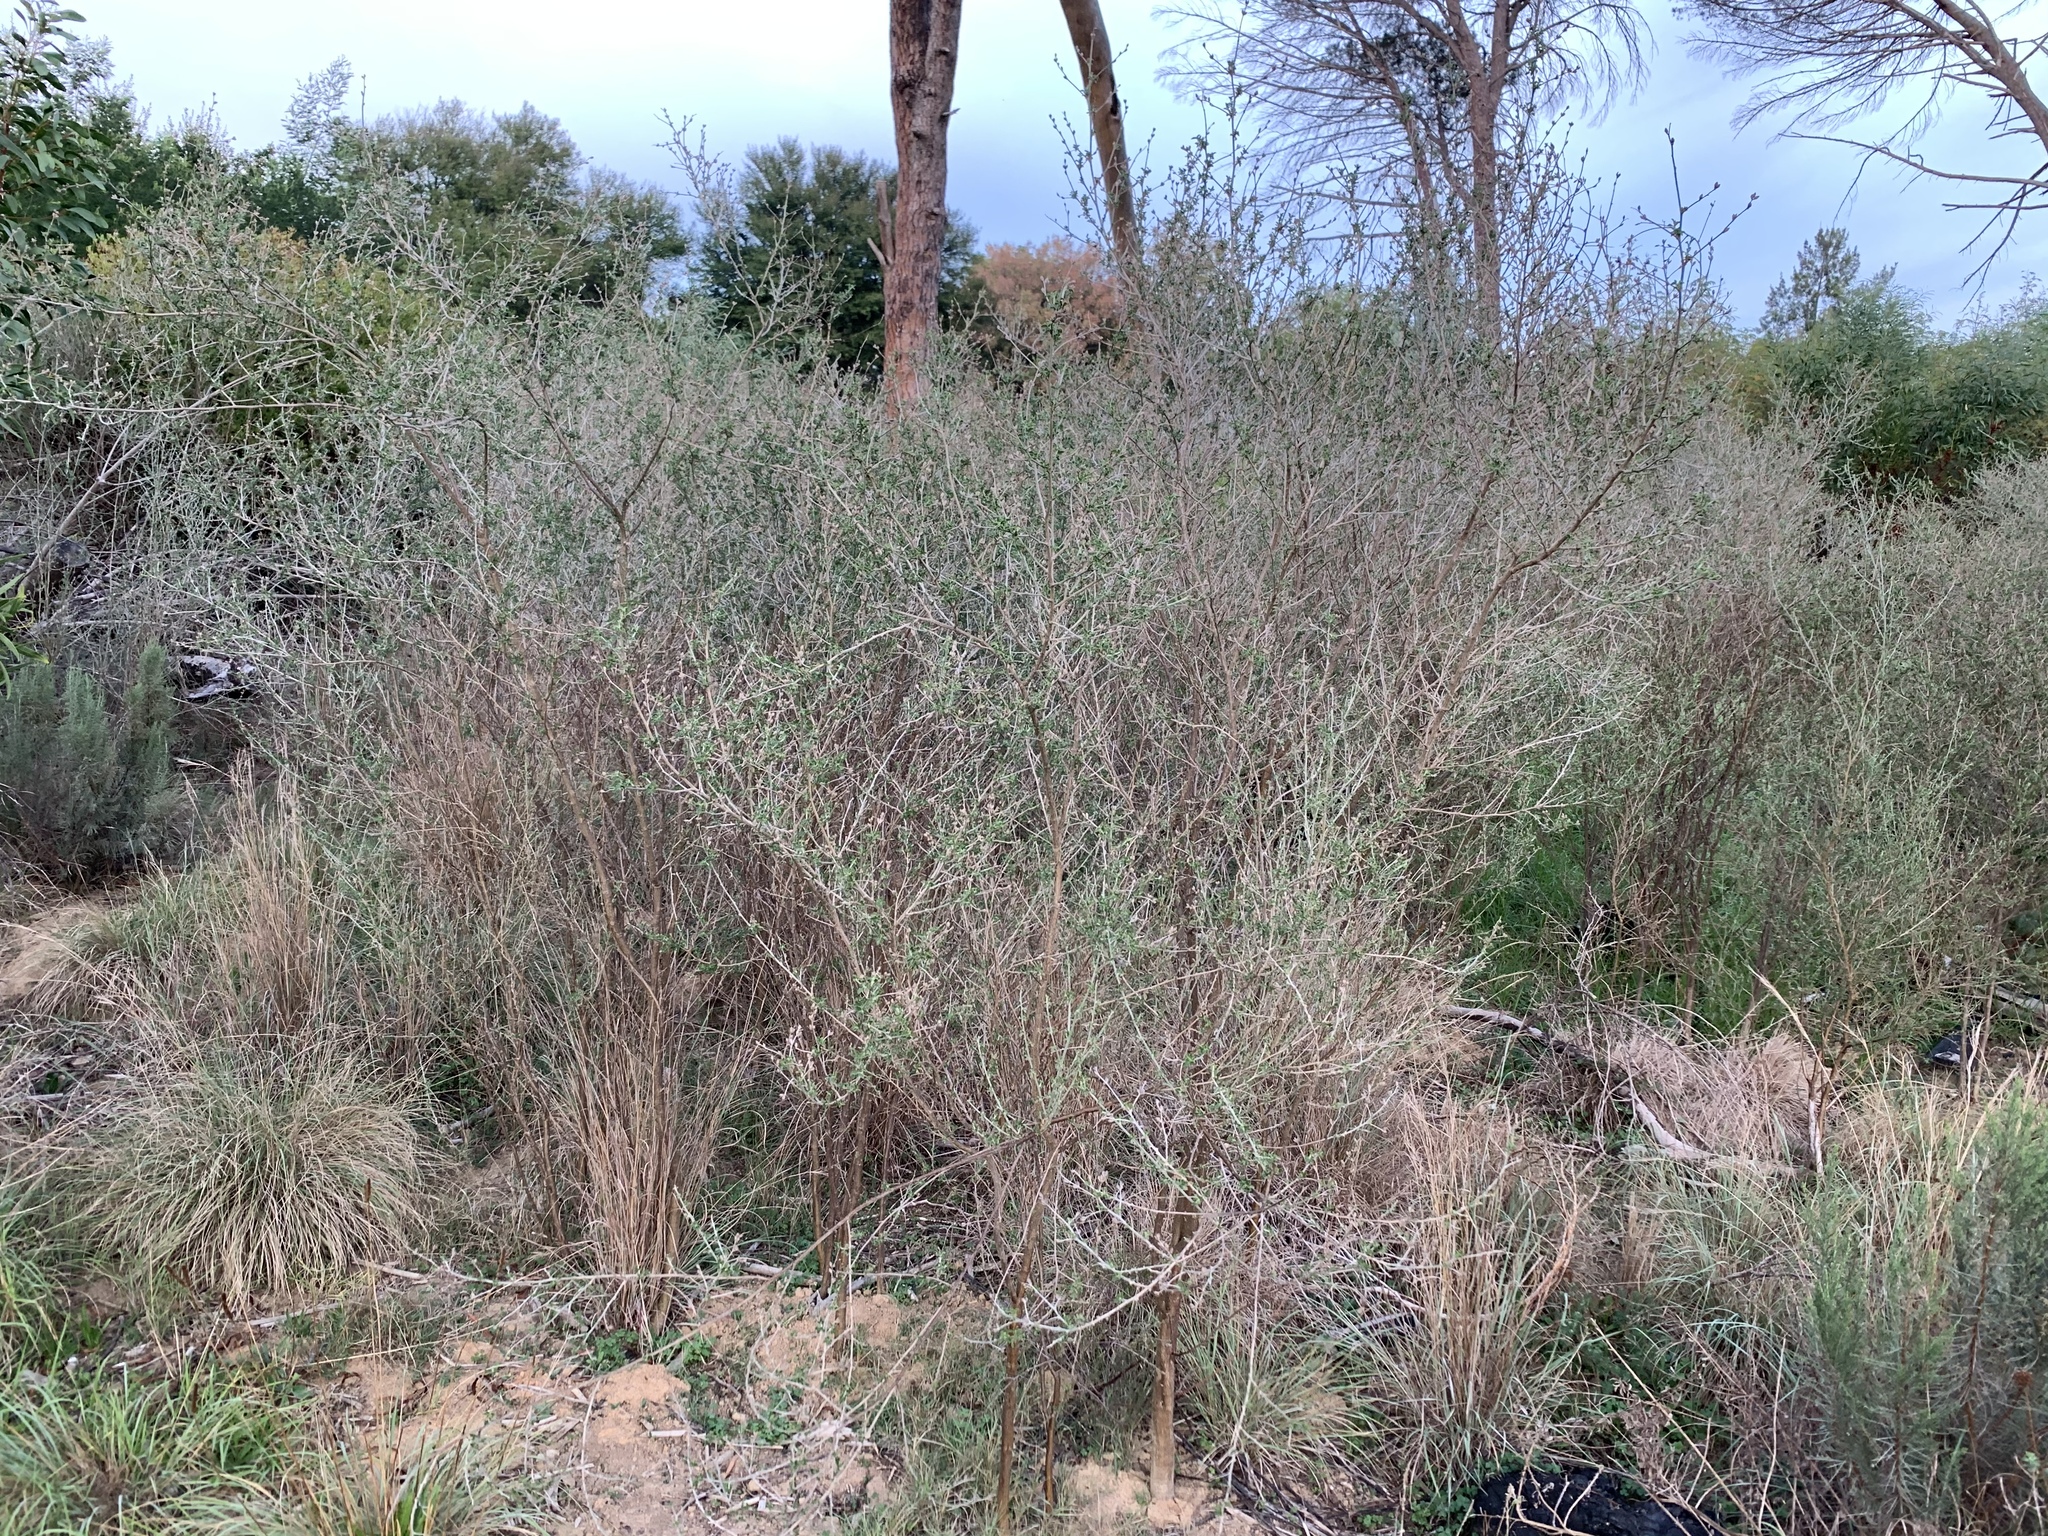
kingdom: Plantae
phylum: Tracheophyta
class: Magnoliopsida
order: Fabales
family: Fabaceae
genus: Psoralea
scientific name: Psoralea hirta
